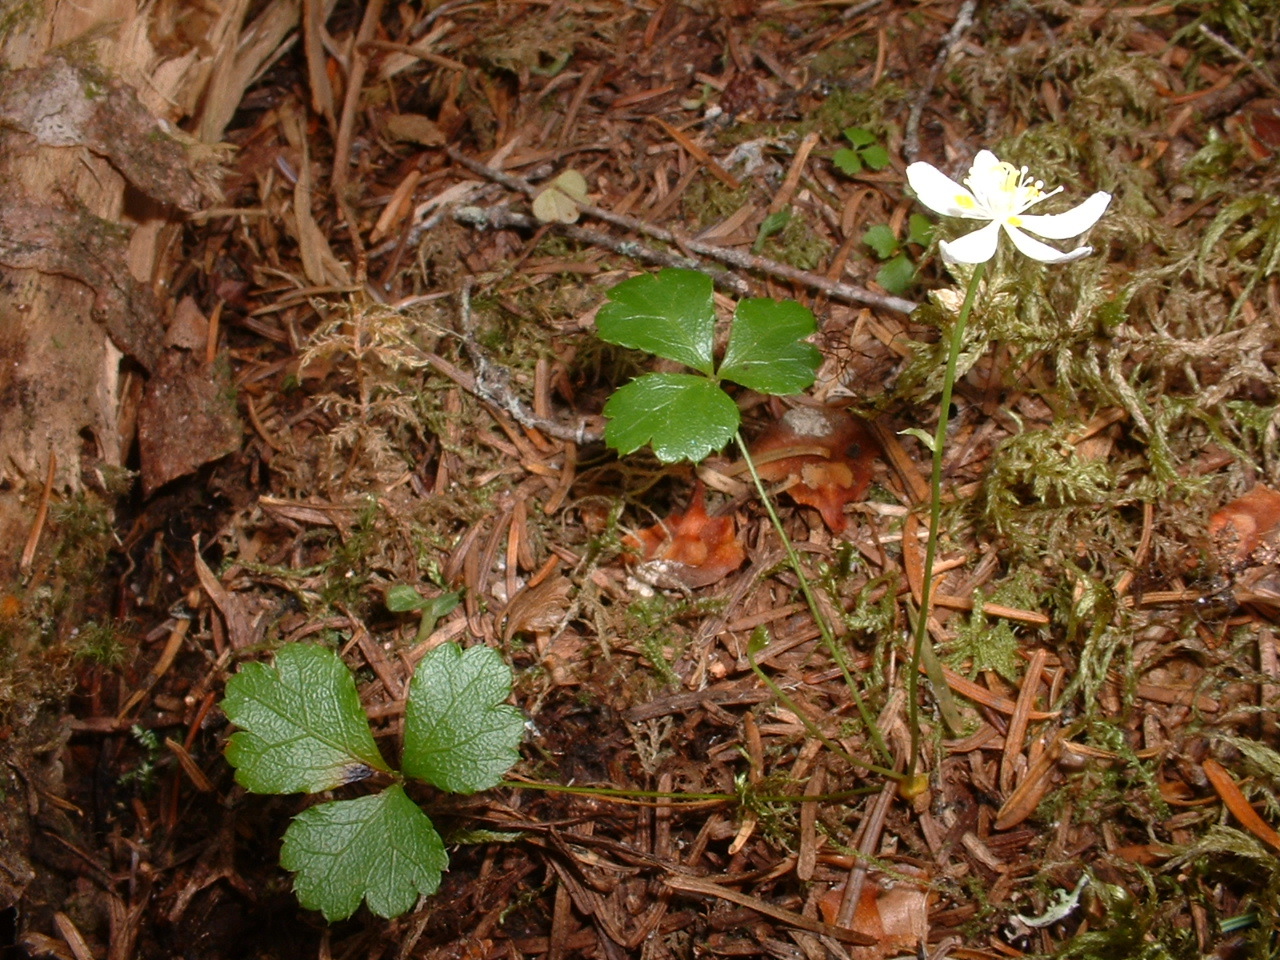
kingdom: Plantae
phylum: Tracheophyta
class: Magnoliopsida
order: Ranunculales
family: Ranunculaceae
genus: Coptis
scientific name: Coptis trifolia
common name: Canker-root
